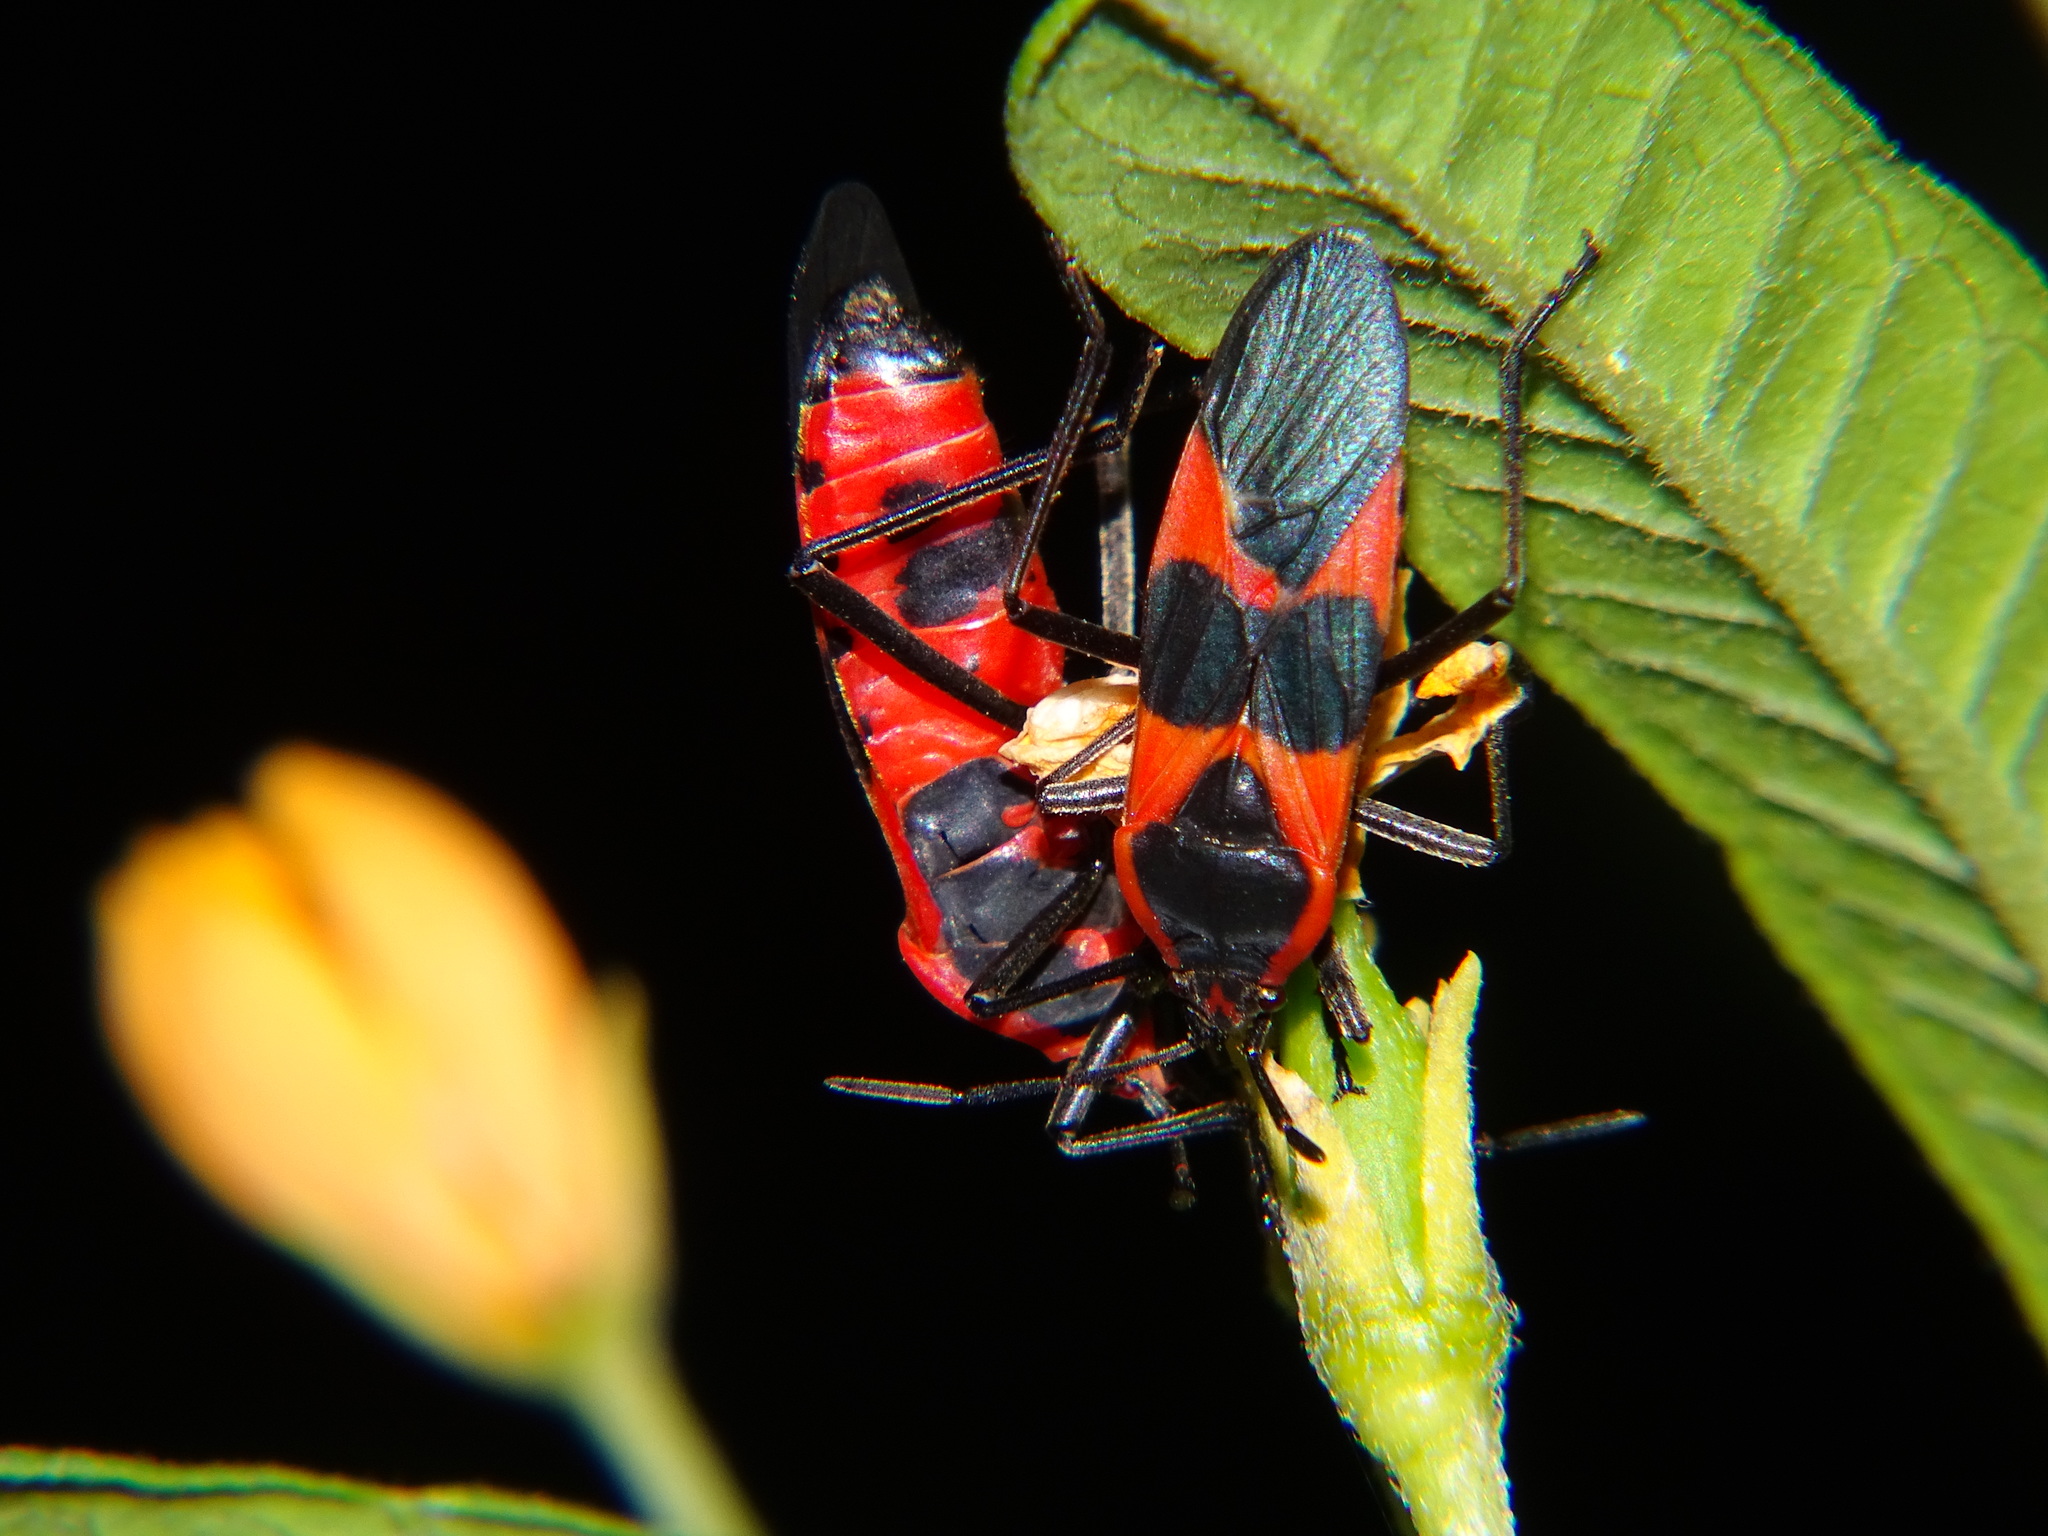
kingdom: Animalia
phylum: Arthropoda
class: Insecta
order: Hemiptera
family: Lygaeidae
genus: Oncopeltus
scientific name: Oncopeltus fasciatus
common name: Large milkweed bug
